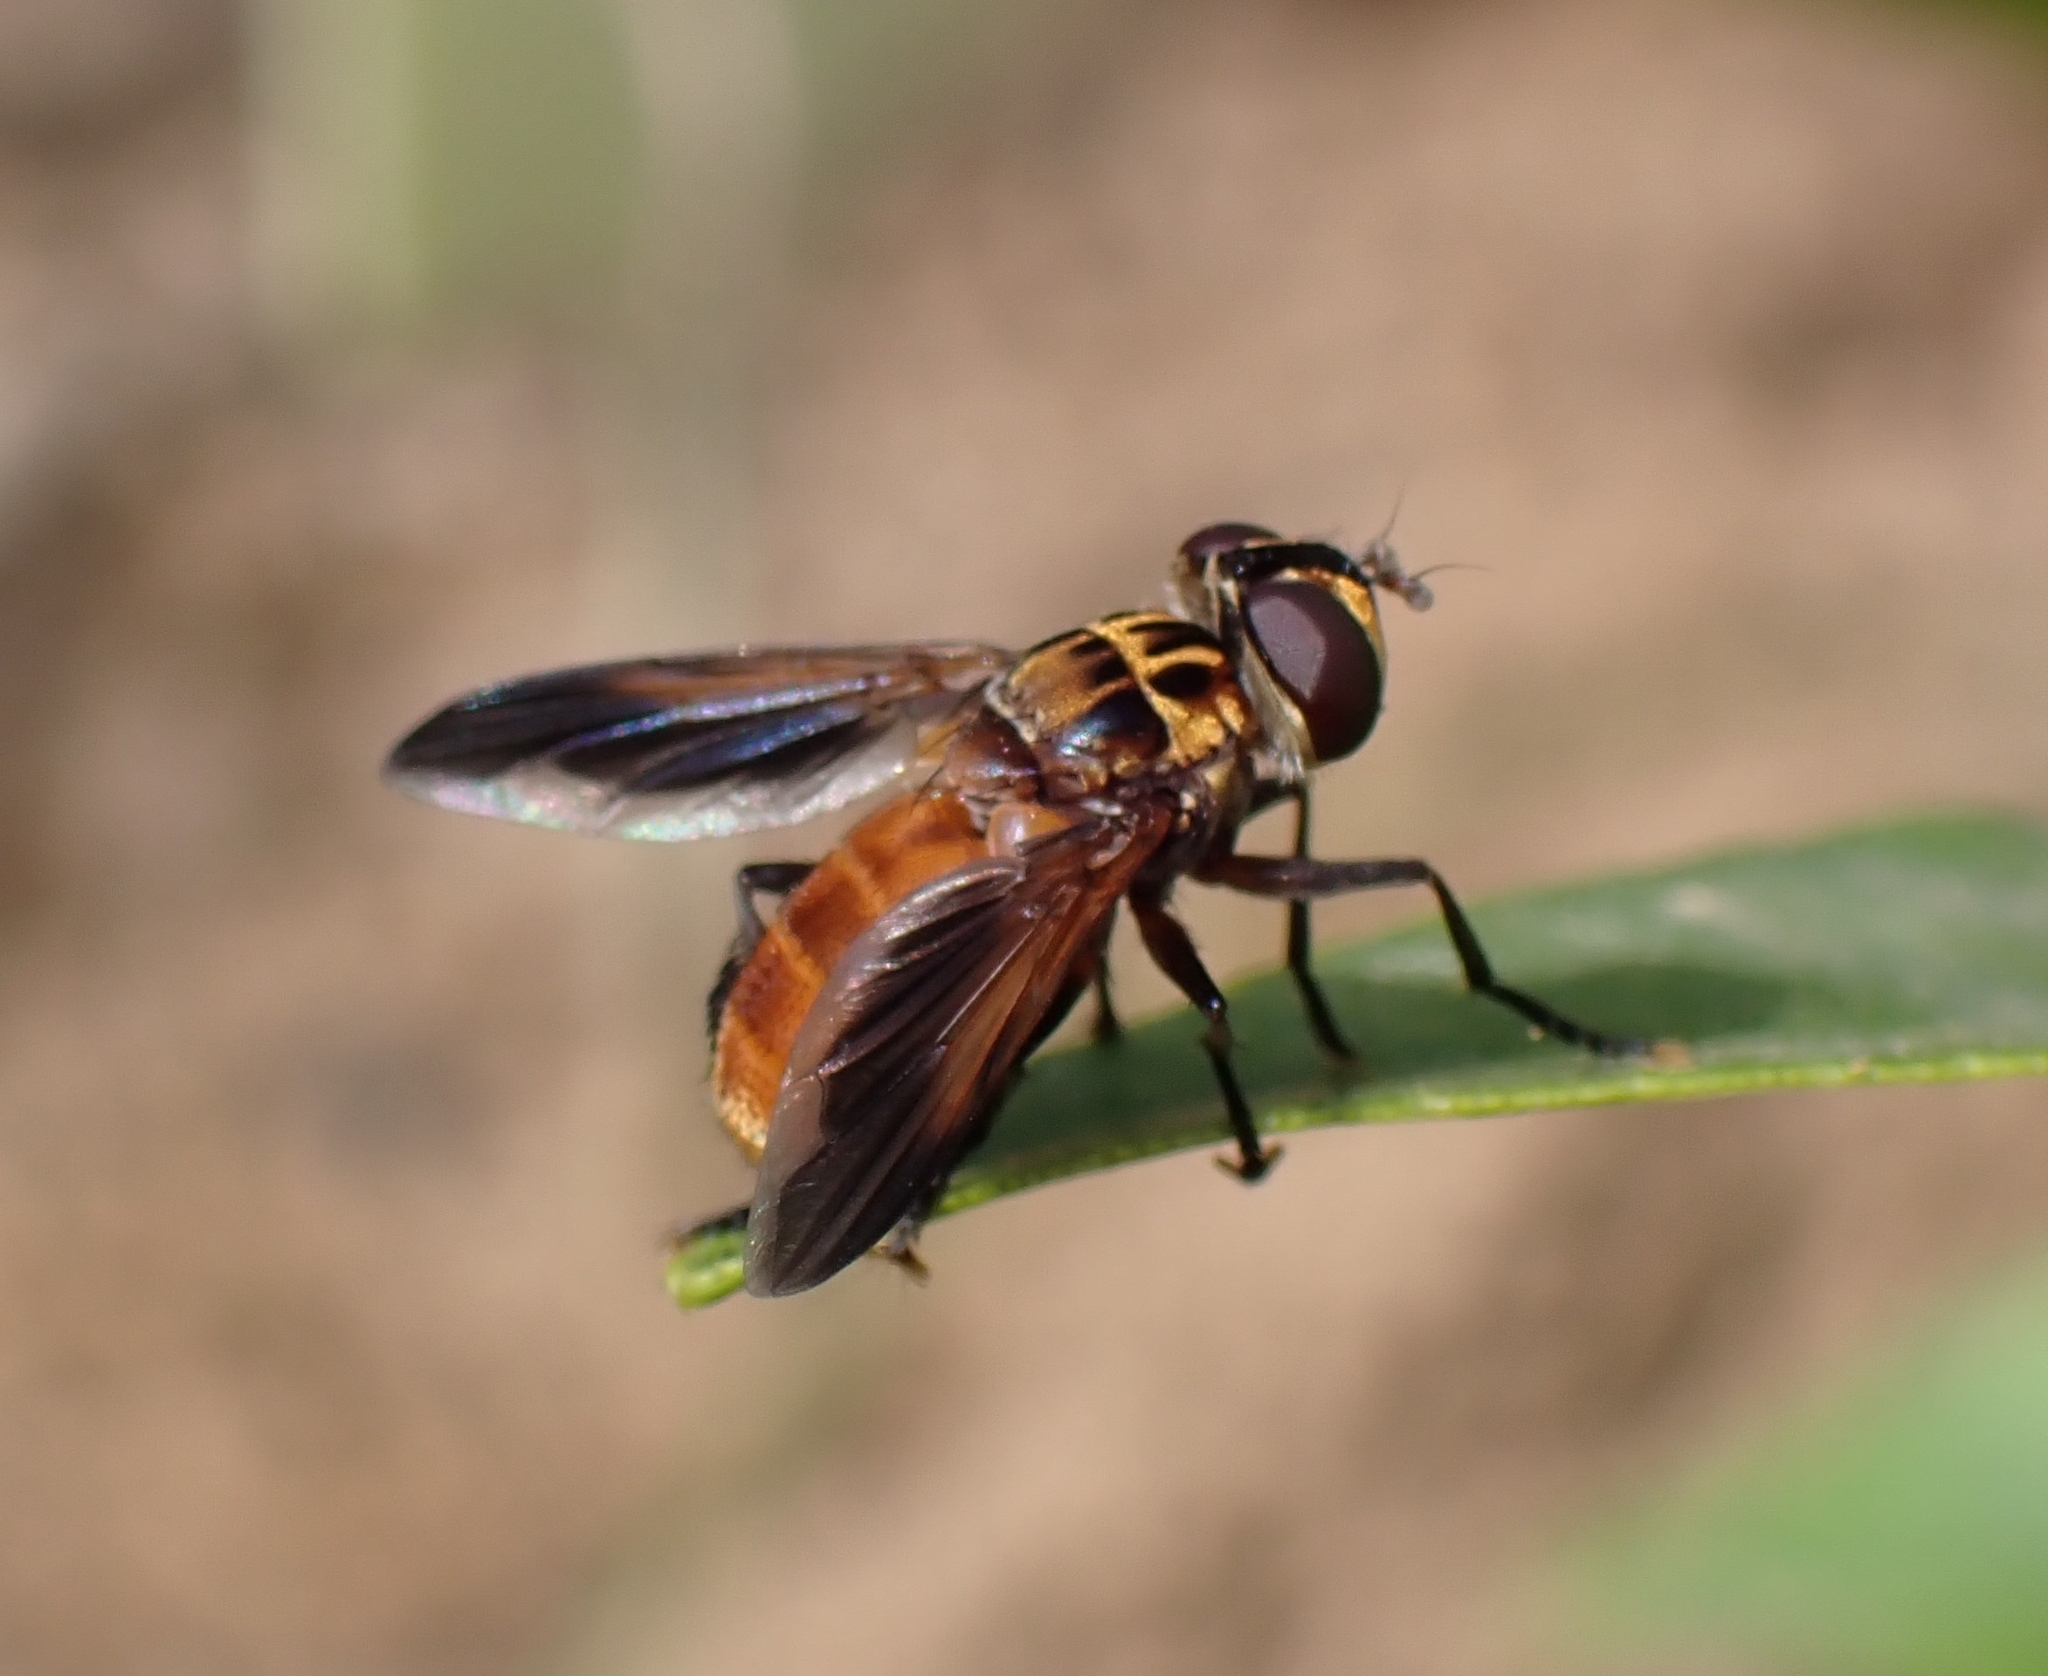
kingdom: Animalia
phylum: Arthropoda
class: Insecta
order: Diptera
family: Tachinidae
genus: Trichopoda
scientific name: Trichopoda pictipennis
